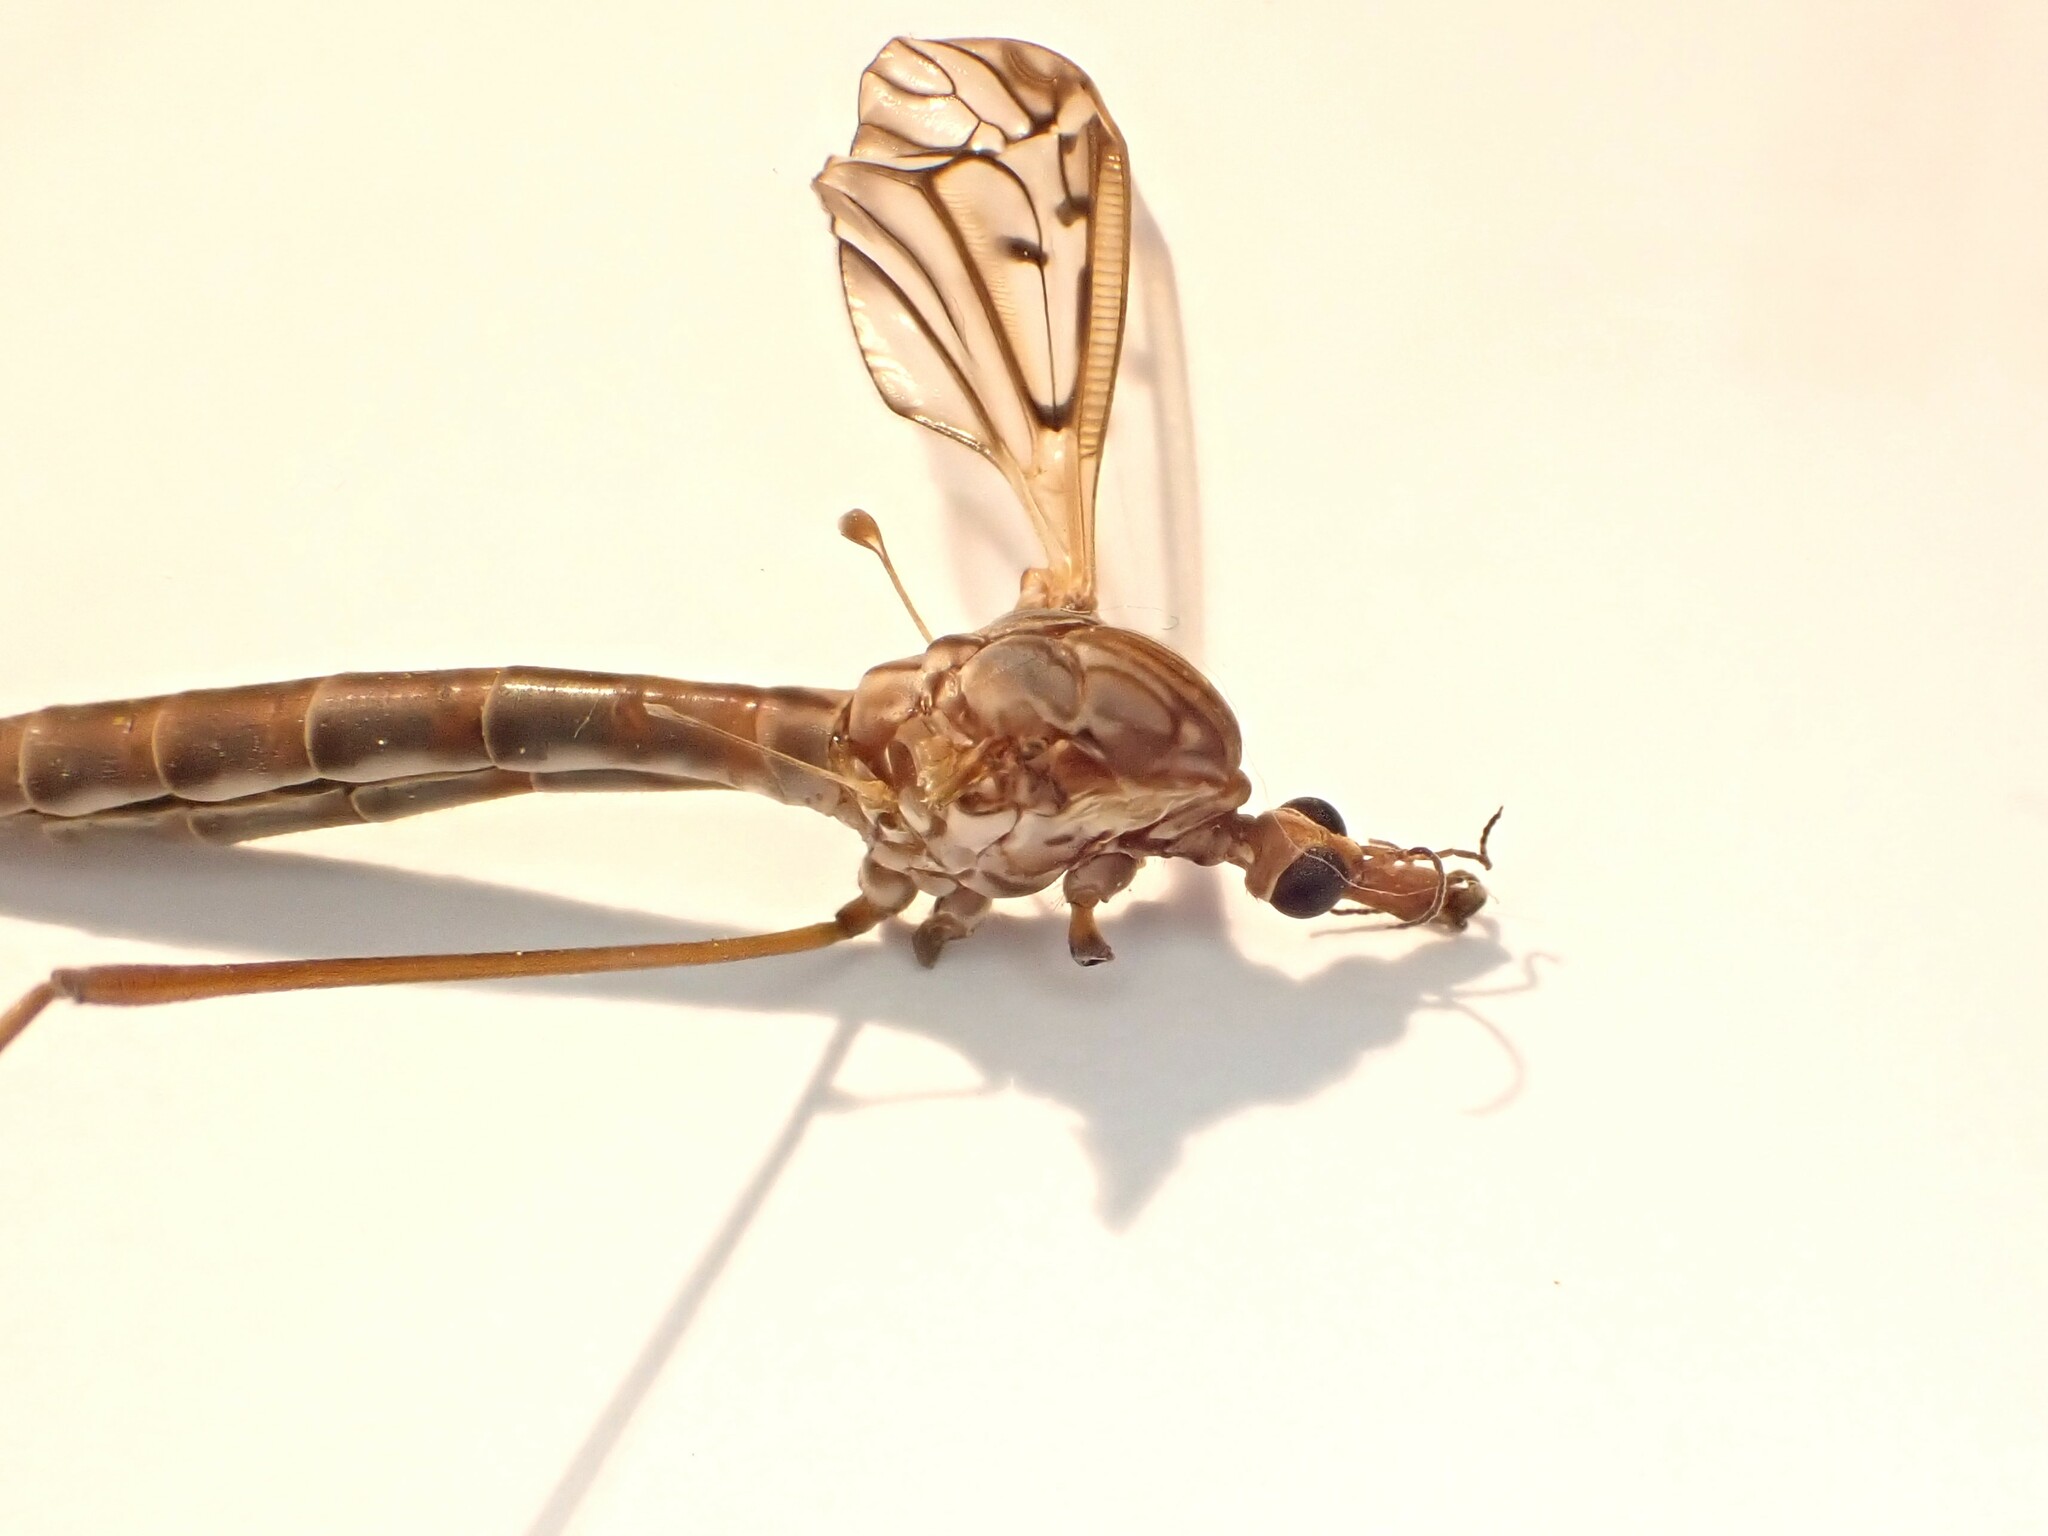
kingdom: Animalia
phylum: Arthropoda
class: Insecta
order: Diptera
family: Tipulidae
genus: Zelandotipula
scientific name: Zelandotipula novarae
